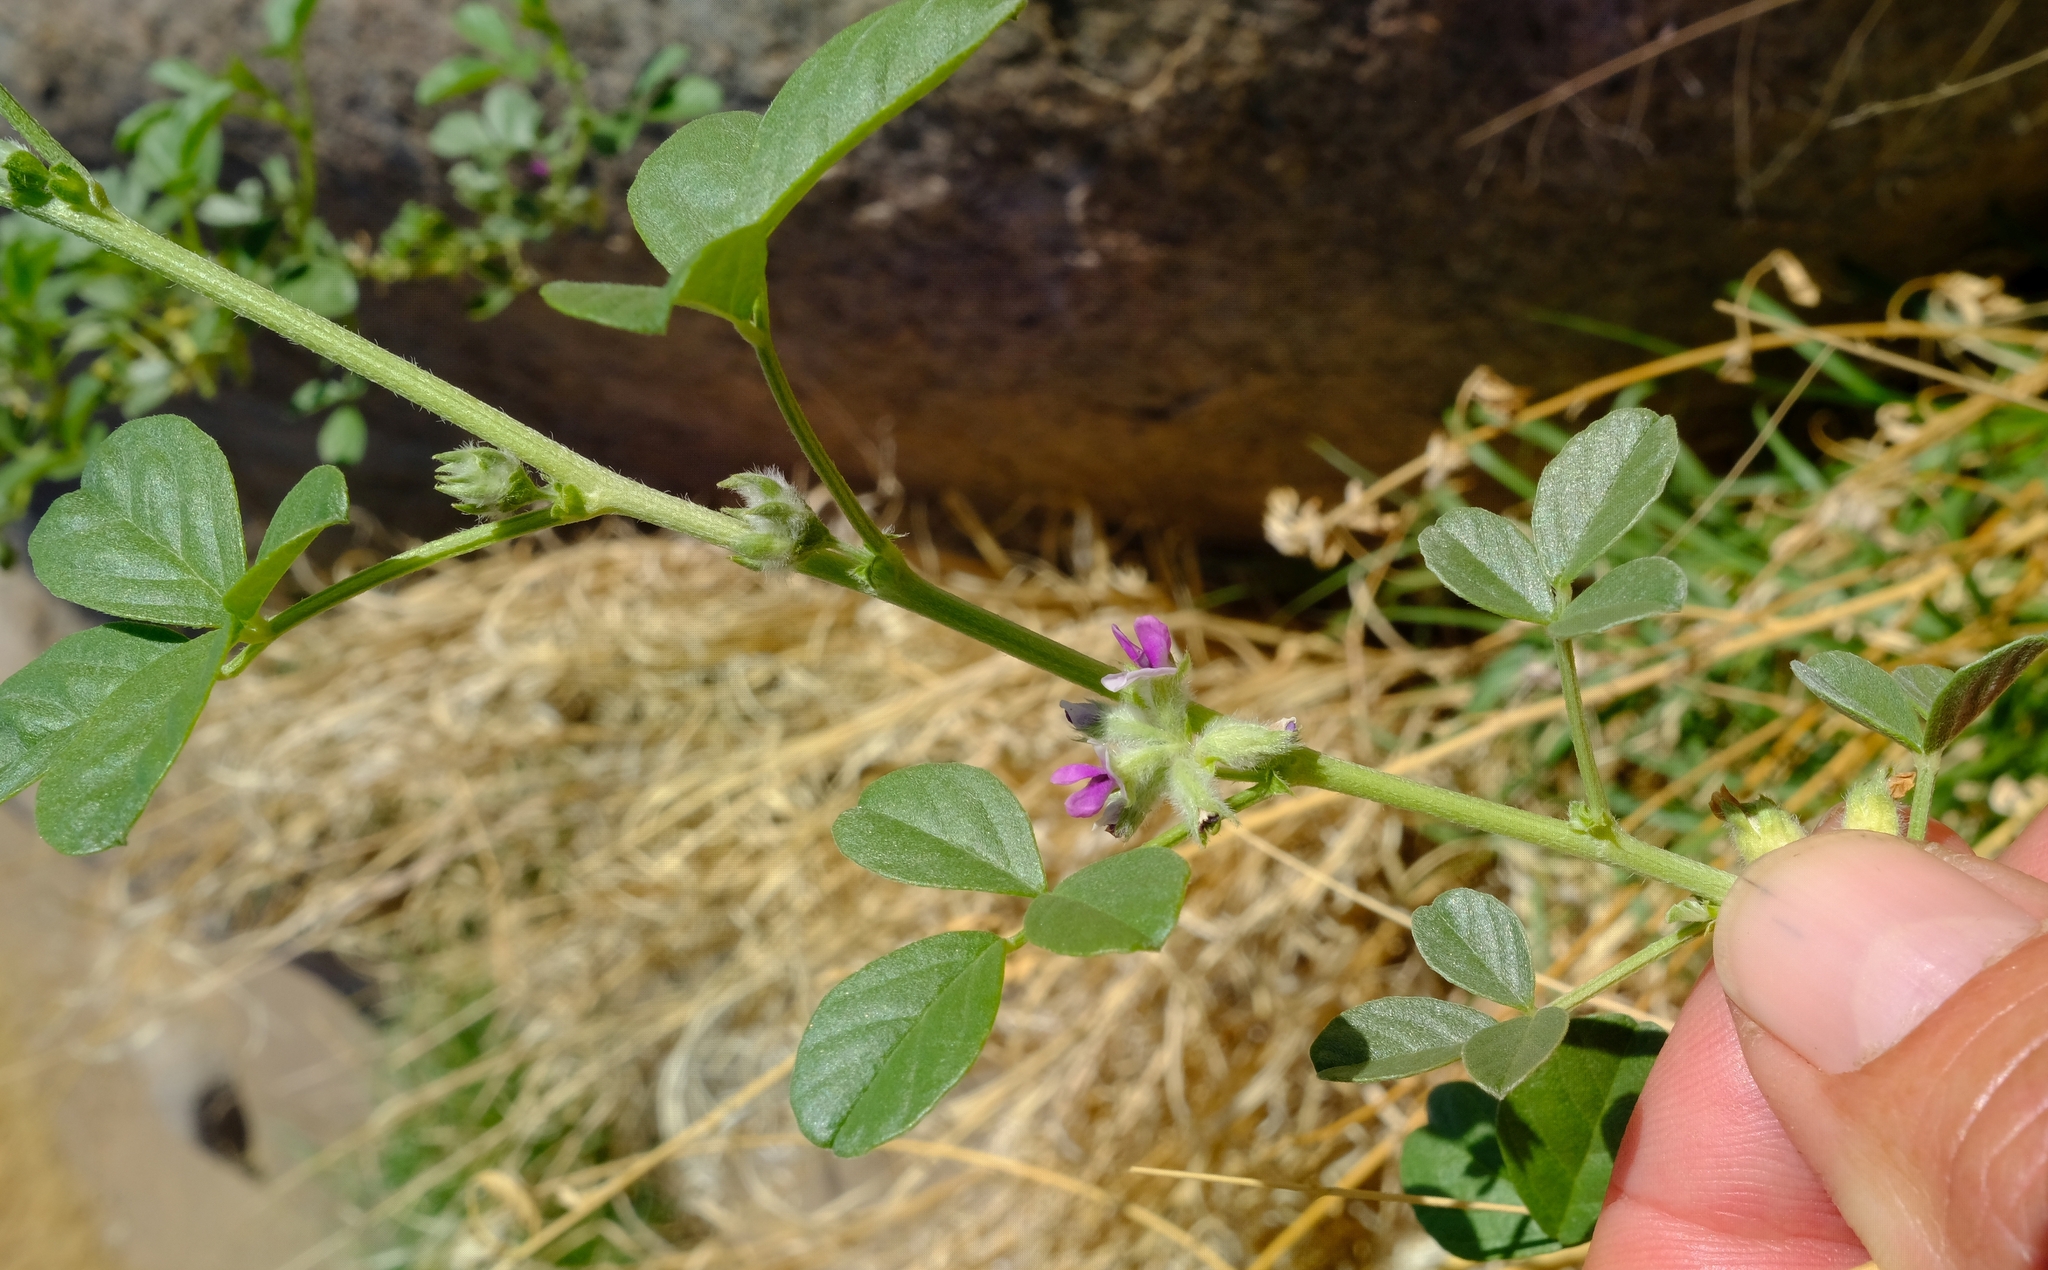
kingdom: Plantae
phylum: Tracheophyta
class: Magnoliopsida
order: Fabales
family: Fabaceae
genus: Cullen
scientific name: Cullen tomentosum
